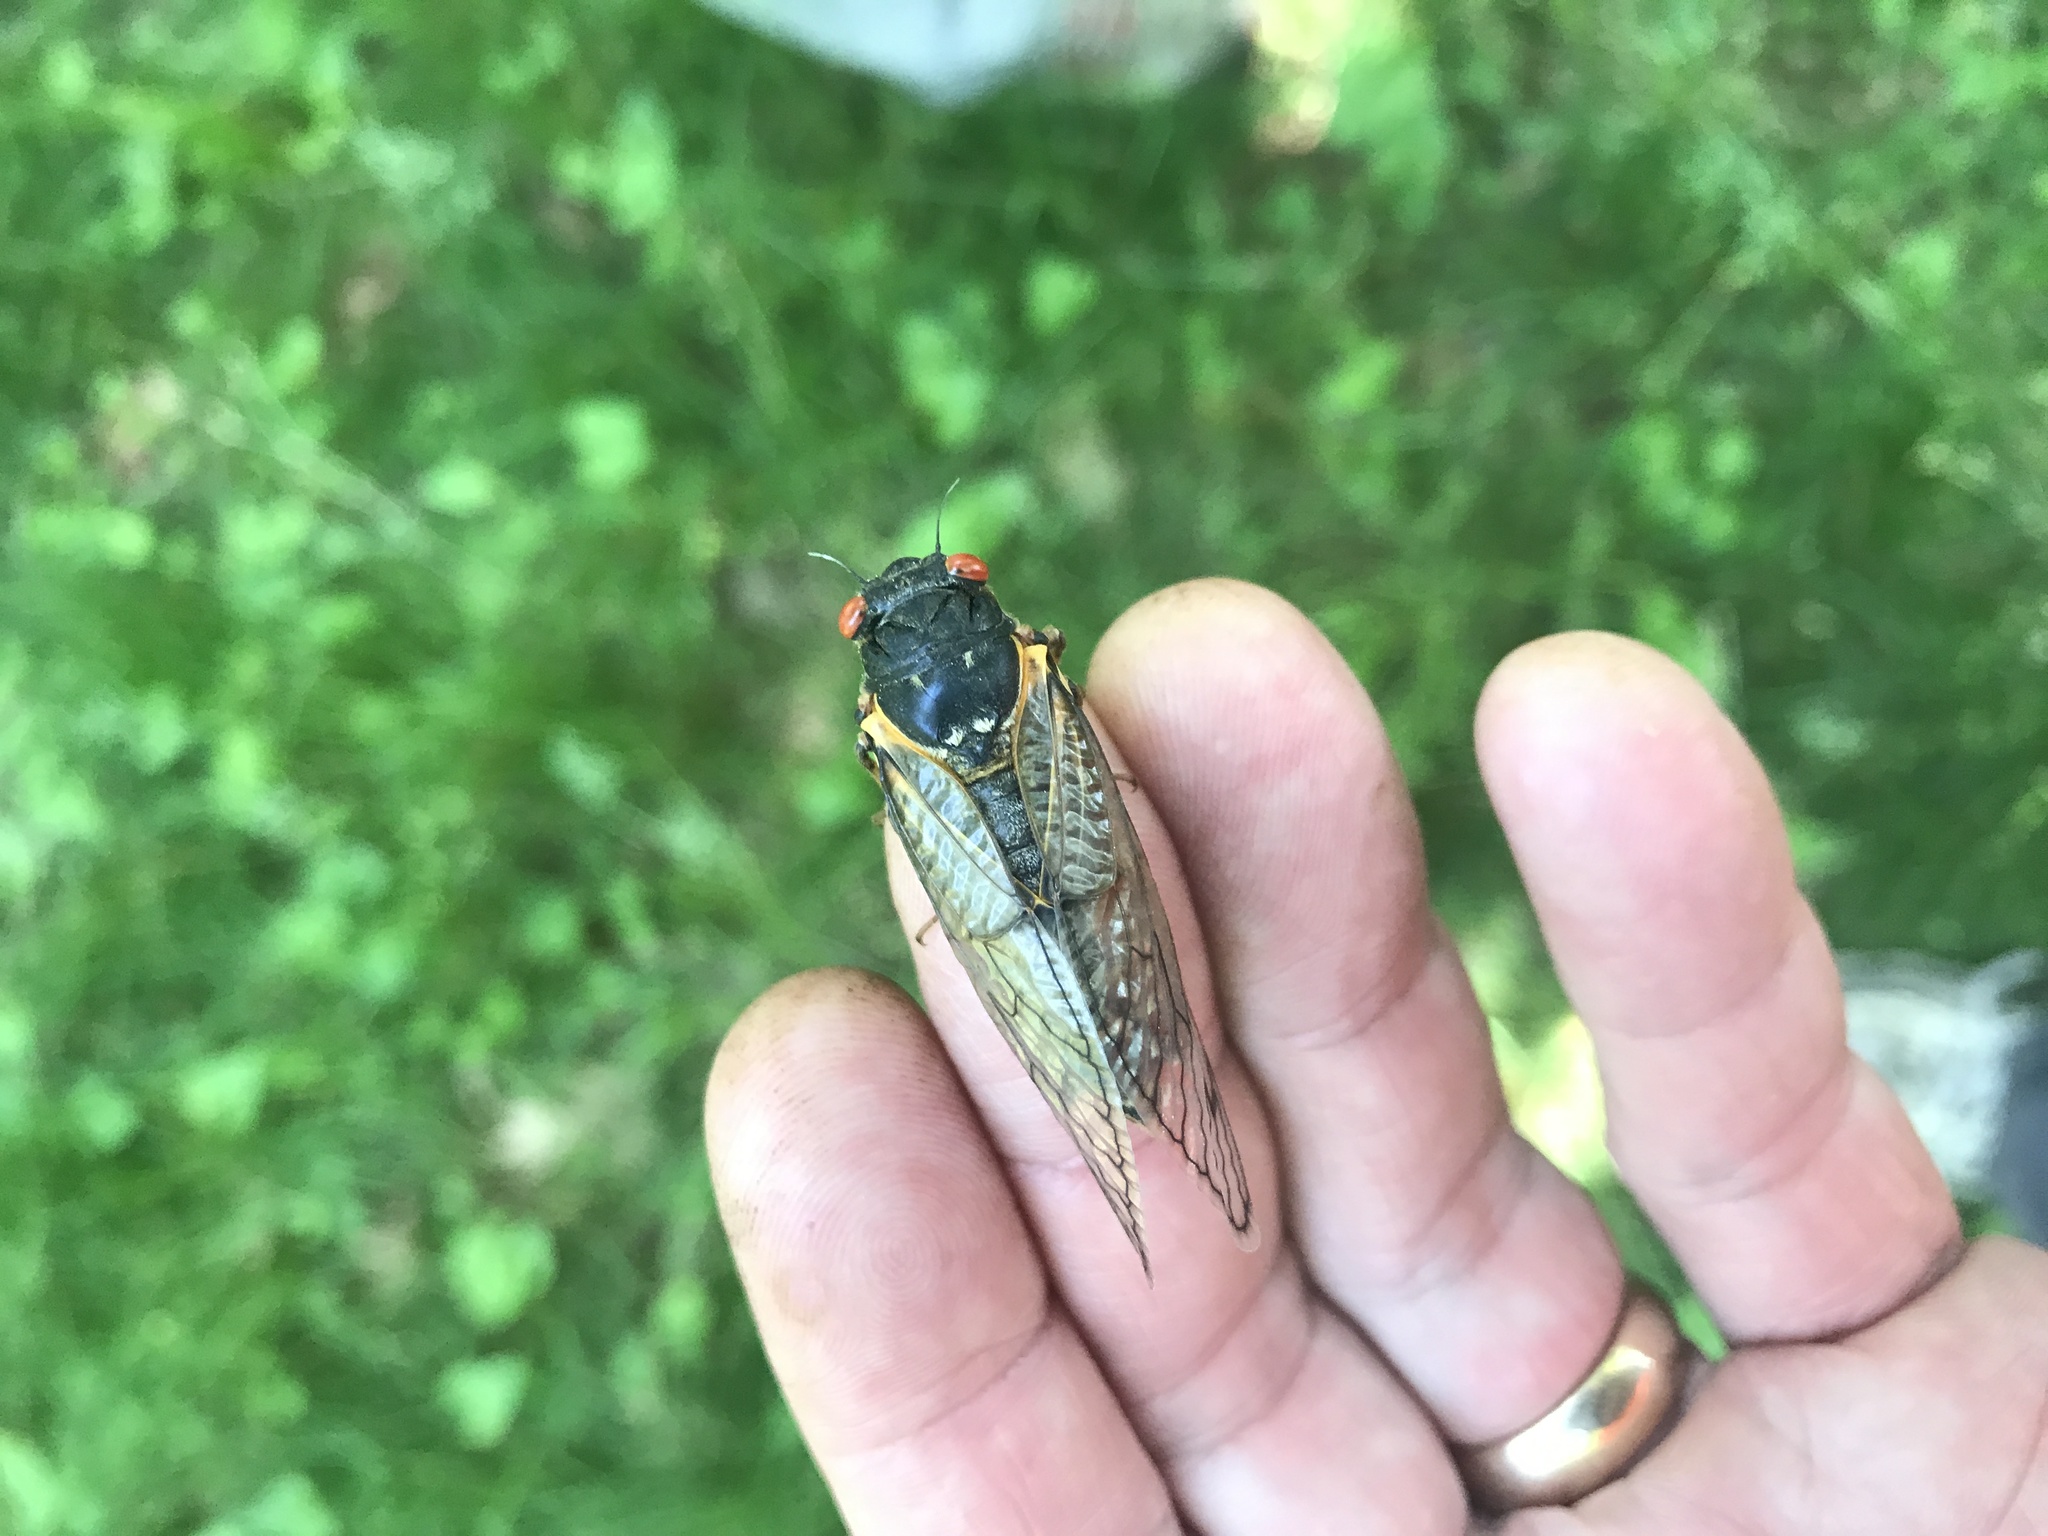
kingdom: Animalia
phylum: Arthropoda
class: Insecta
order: Hemiptera
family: Cicadidae
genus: Magicicada
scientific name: Magicicada septendecim
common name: Periodical cicada
